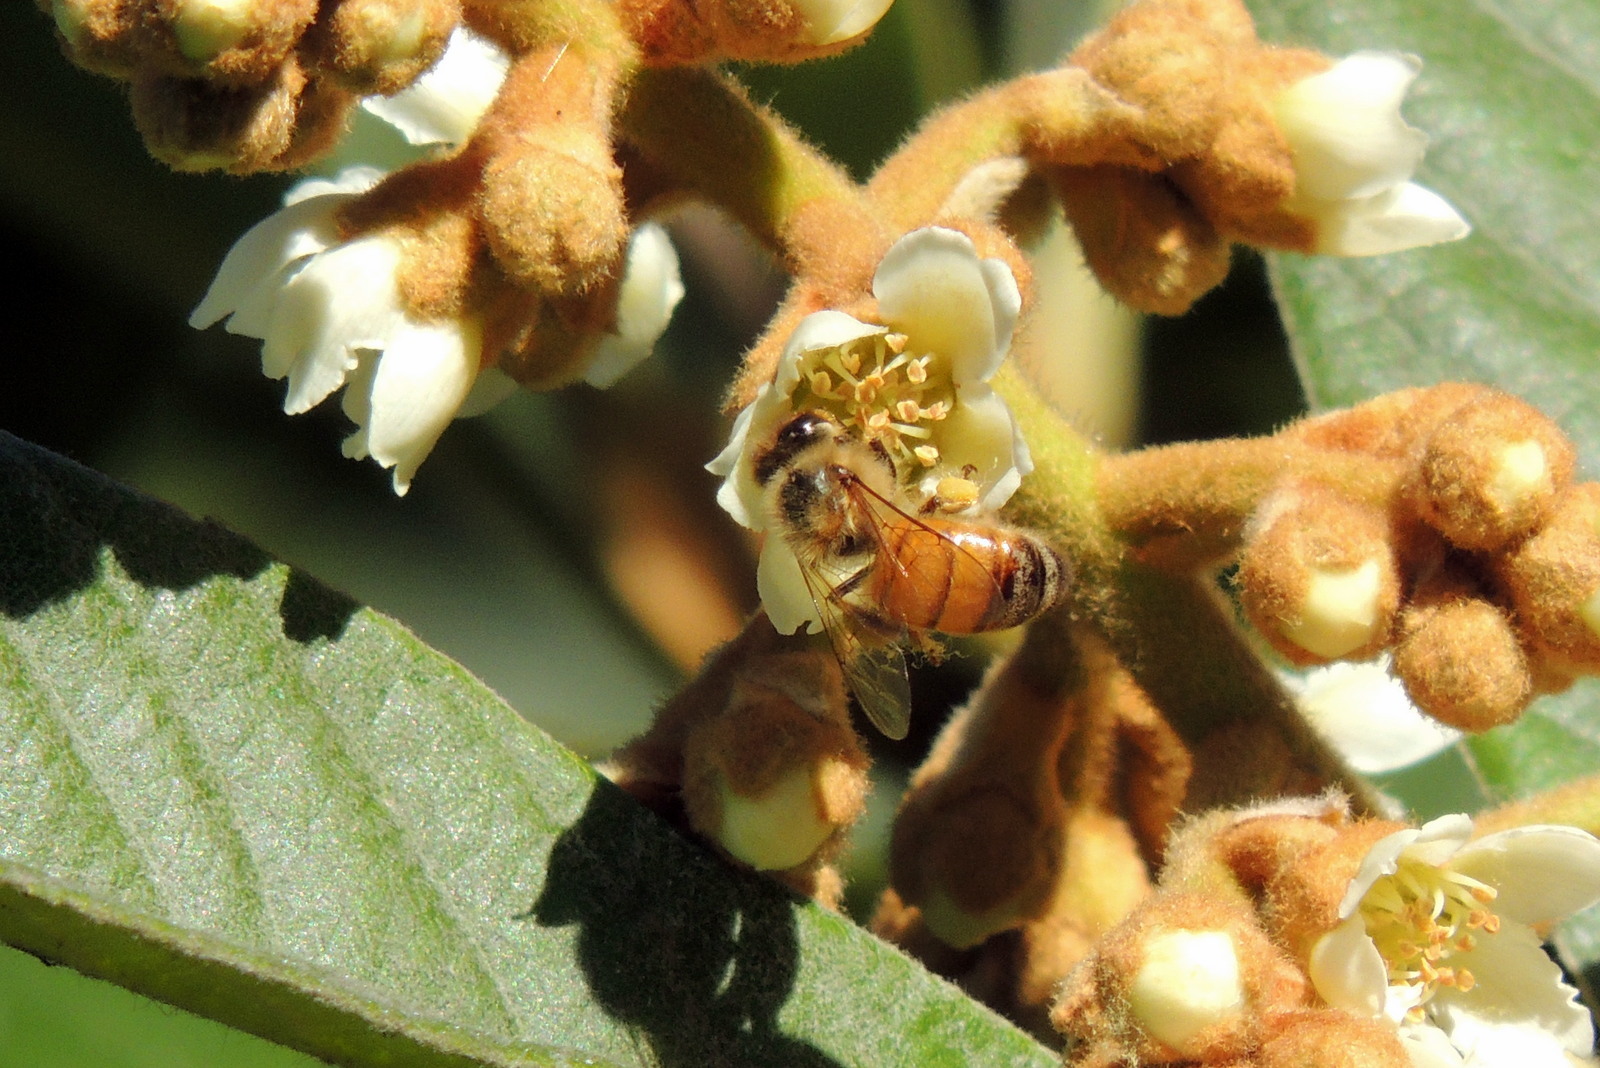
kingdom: Animalia
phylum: Arthropoda
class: Insecta
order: Hymenoptera
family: Apidae
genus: Apis
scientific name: Apis mellifera
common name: Honey bee
